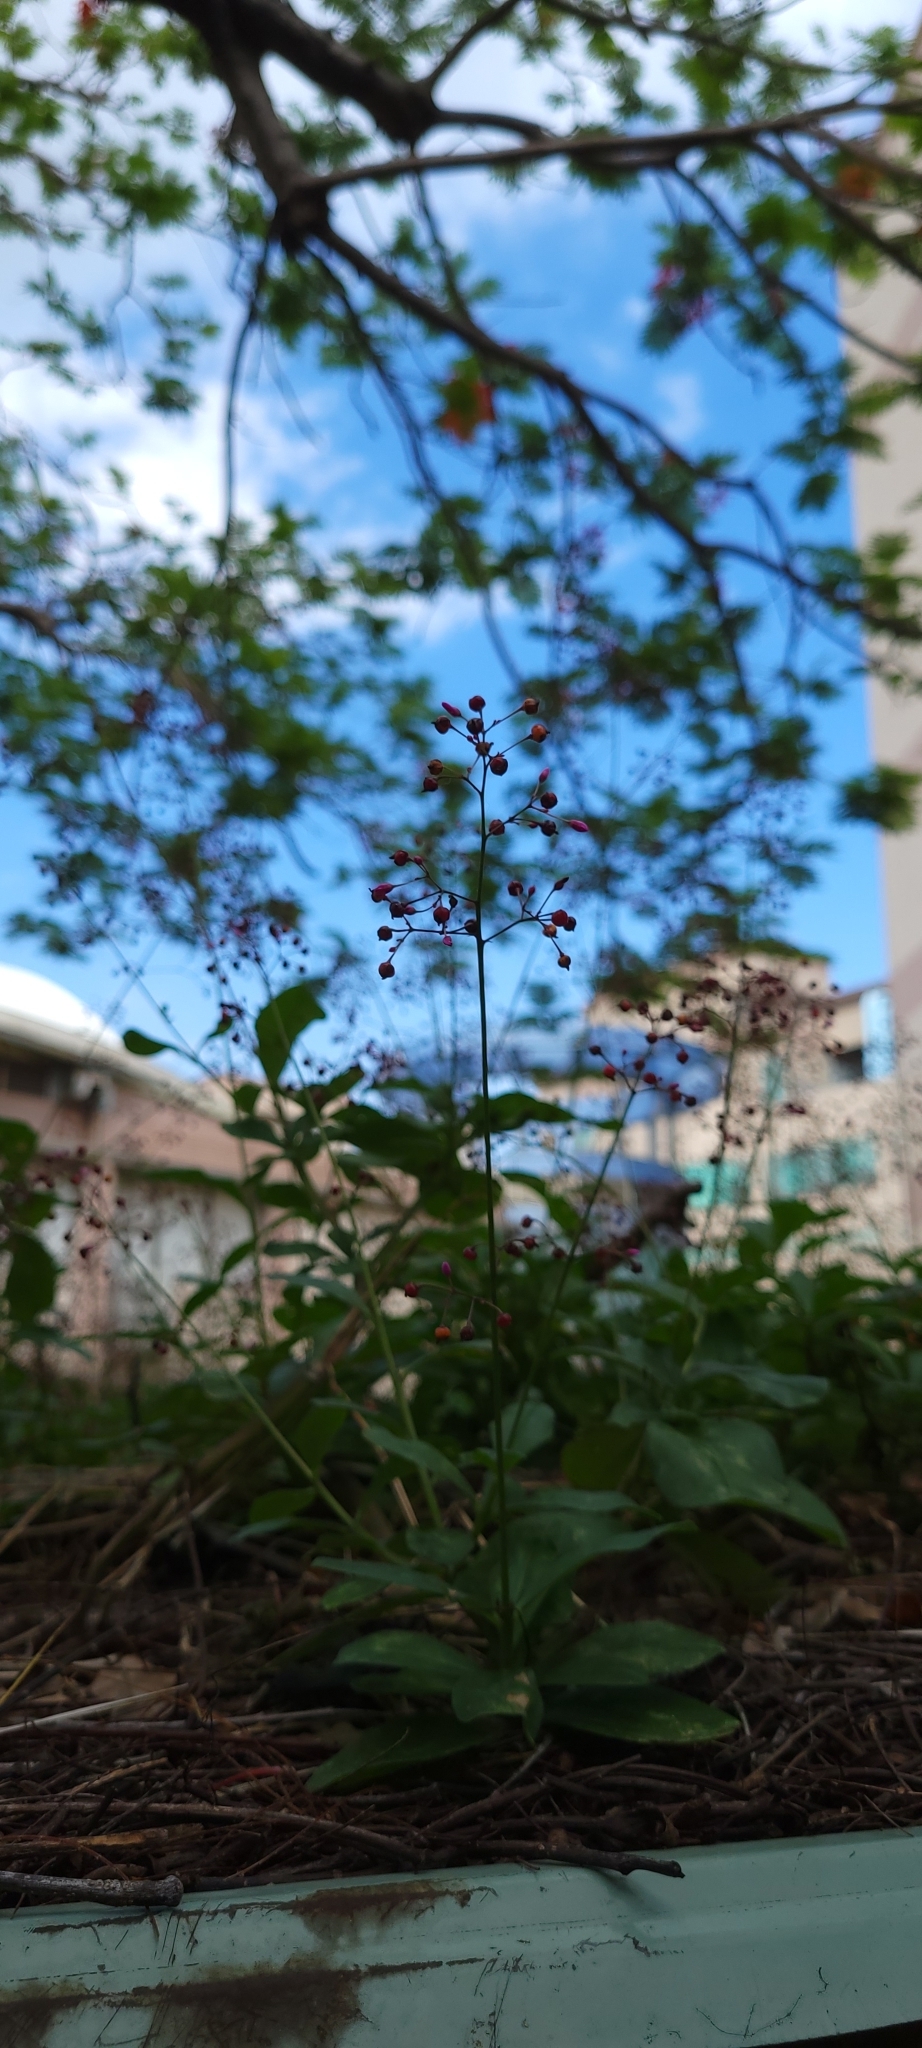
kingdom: Plantae
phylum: Tracheophyta
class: Magnoliopsida
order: Caryophyllales
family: Talinaceae
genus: Talinum
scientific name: Talinum paniculatum
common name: Jewels of opar
